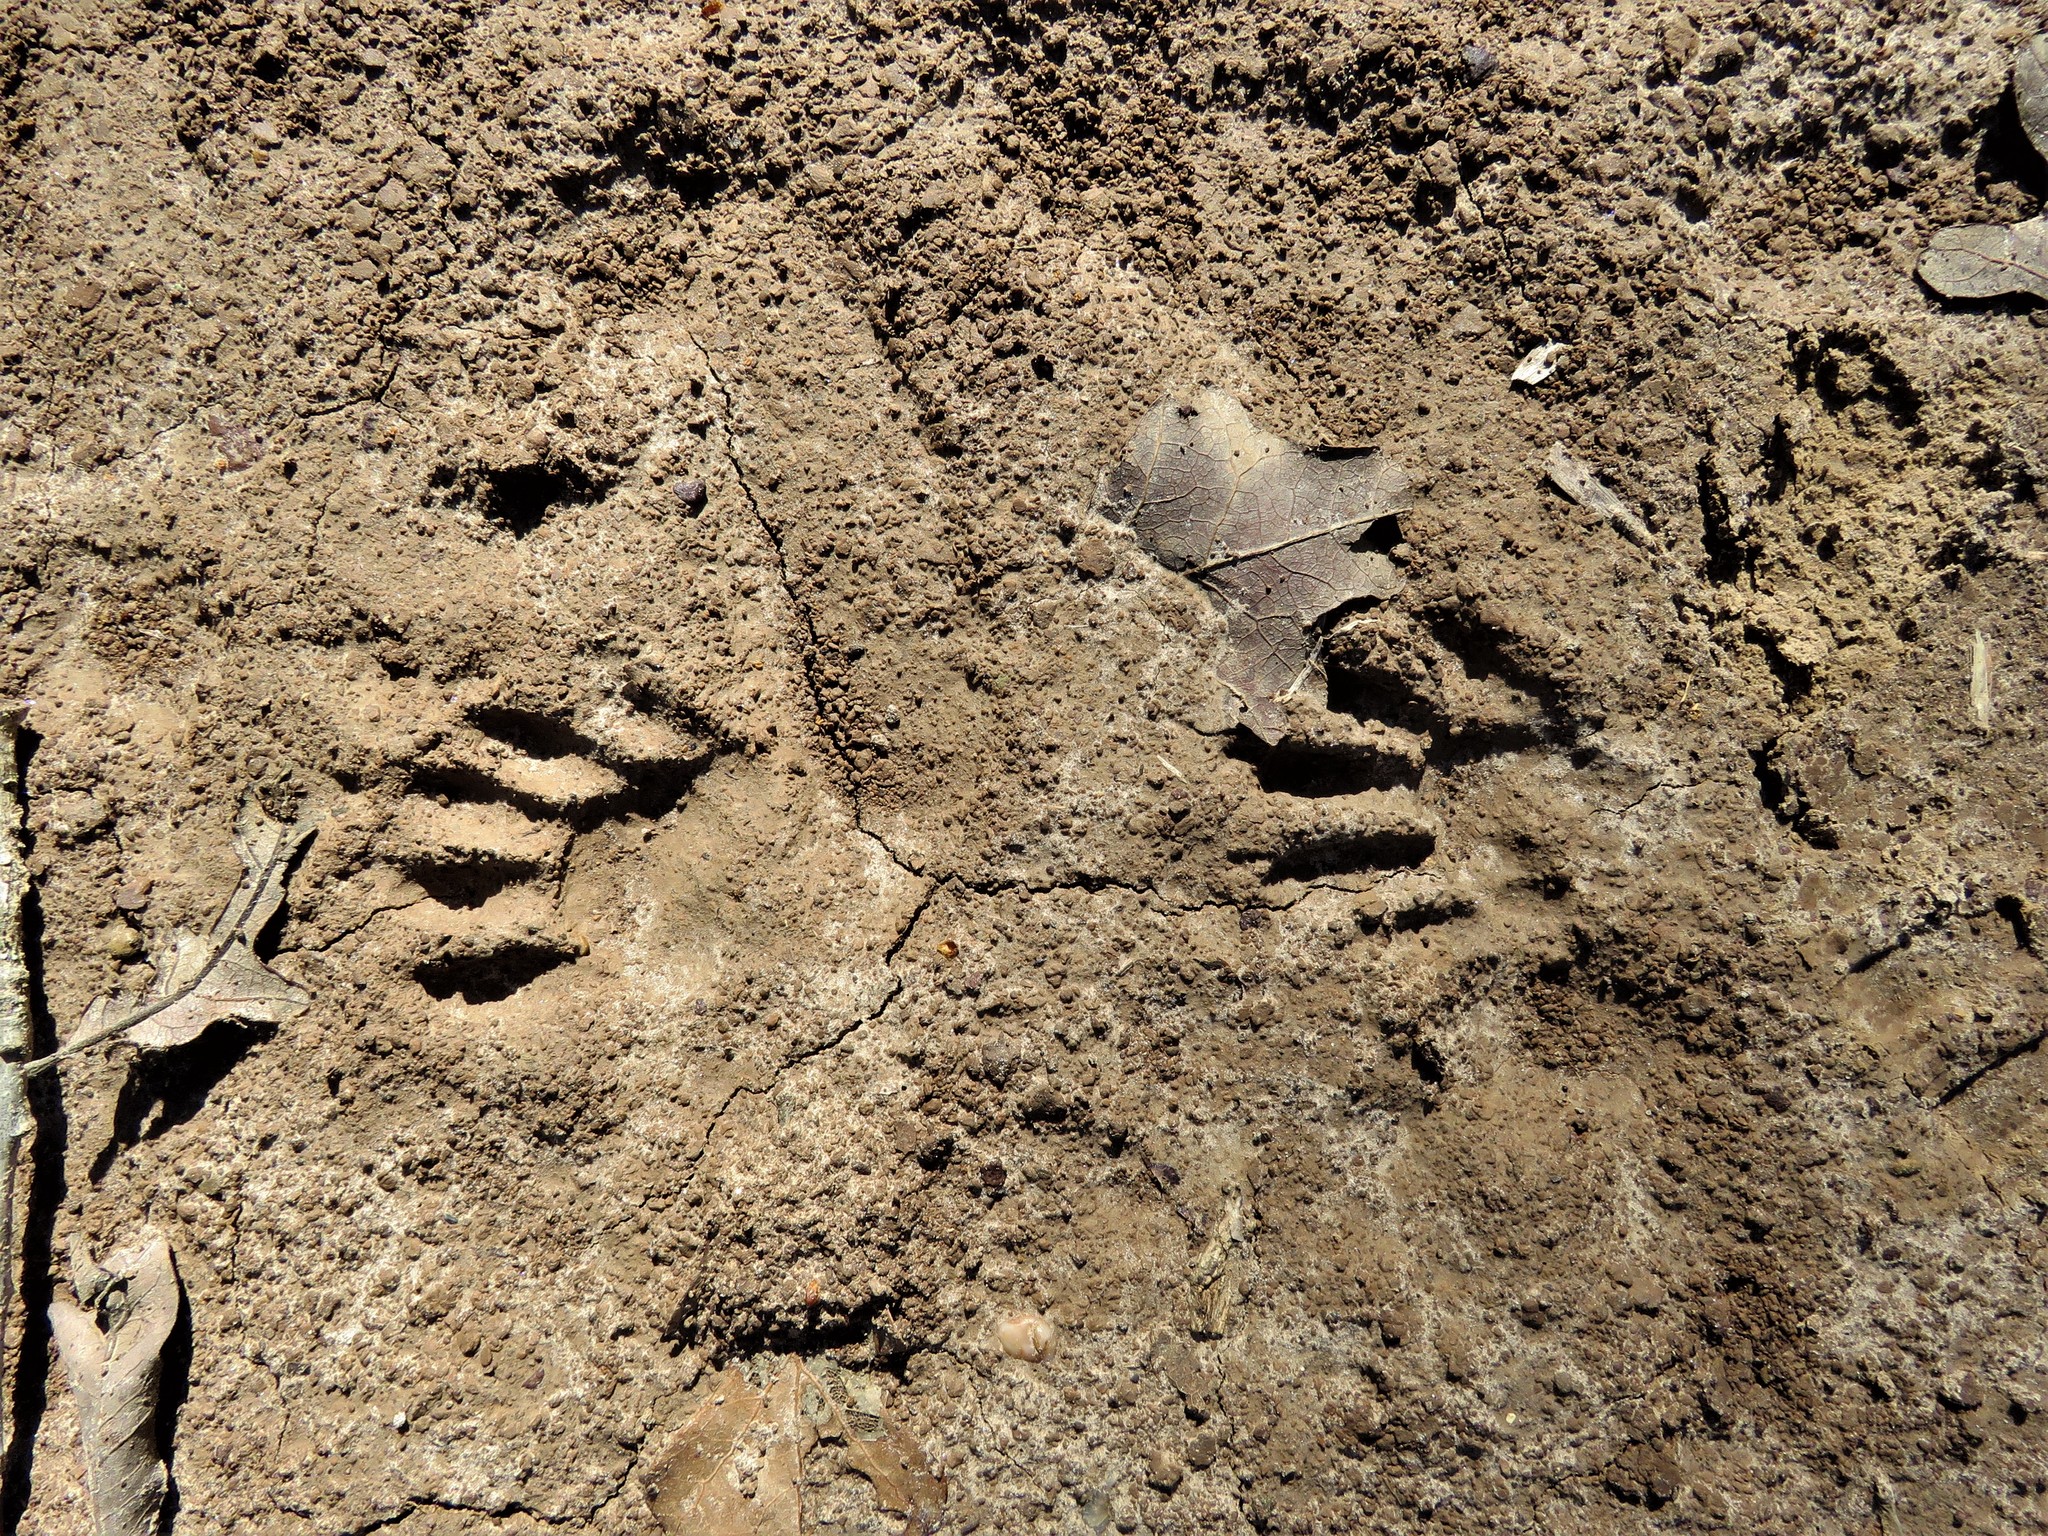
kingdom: Animalia
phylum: Chordata
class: Mammalia
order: Carnivora
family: Procyonidae
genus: Procyon
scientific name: Procyon lotor
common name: Raccoon
